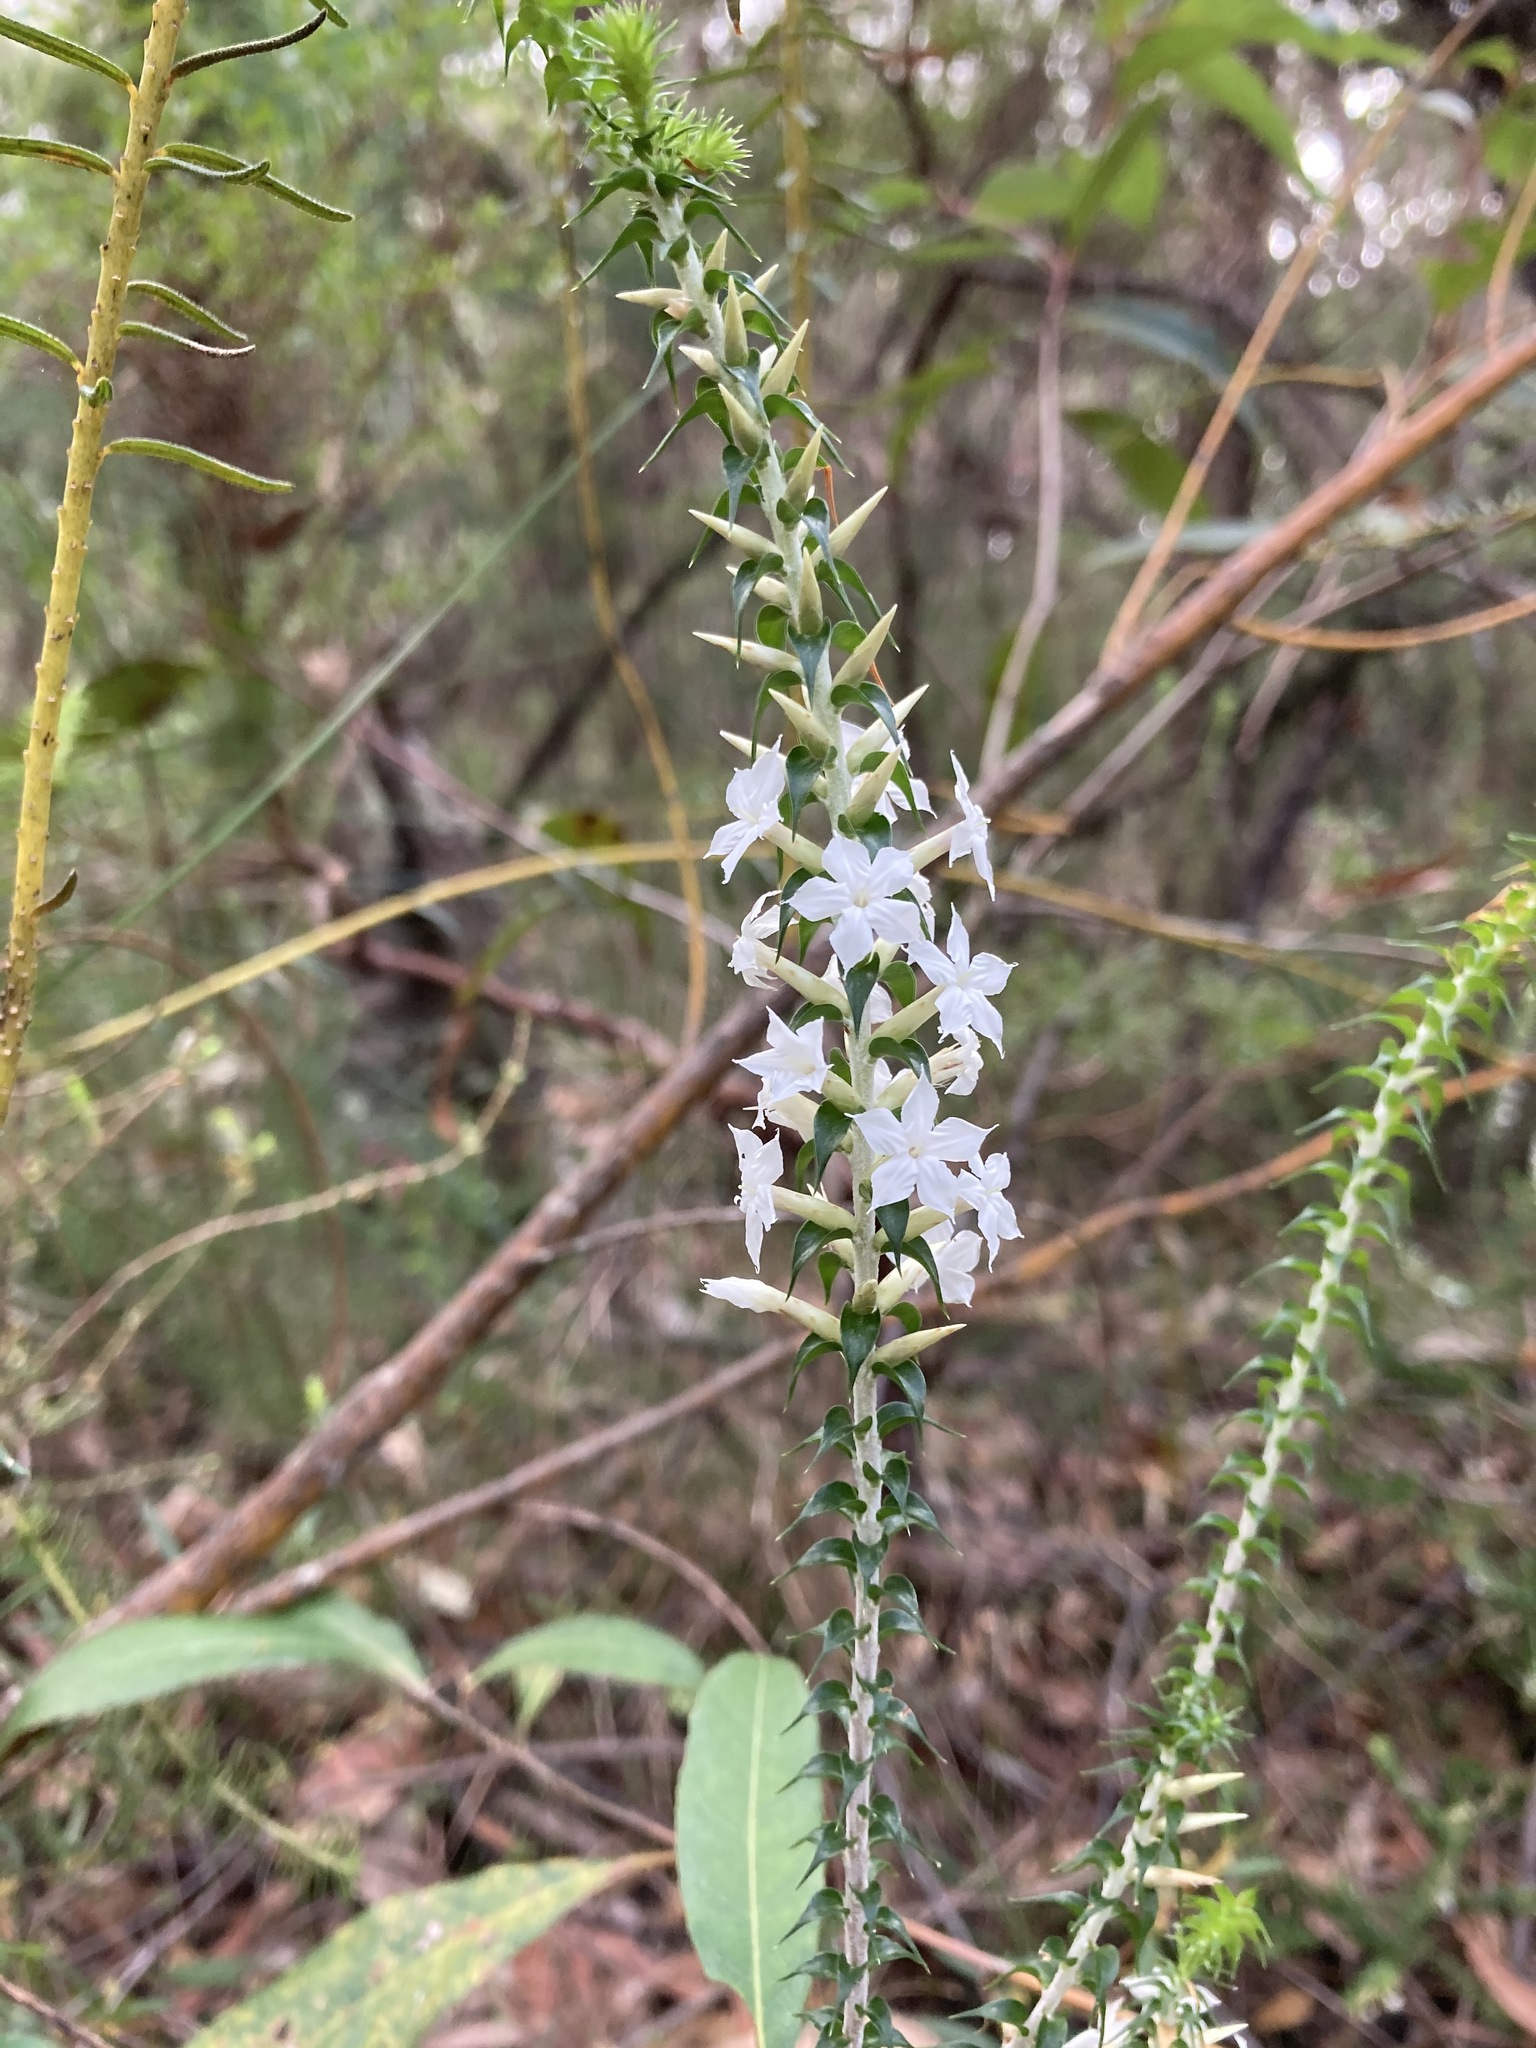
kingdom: Plantae
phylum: Tracheophyta
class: Magnoliopsida
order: Ericales
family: Ericaceae
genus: Woollsia
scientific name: Woollsia pungens
